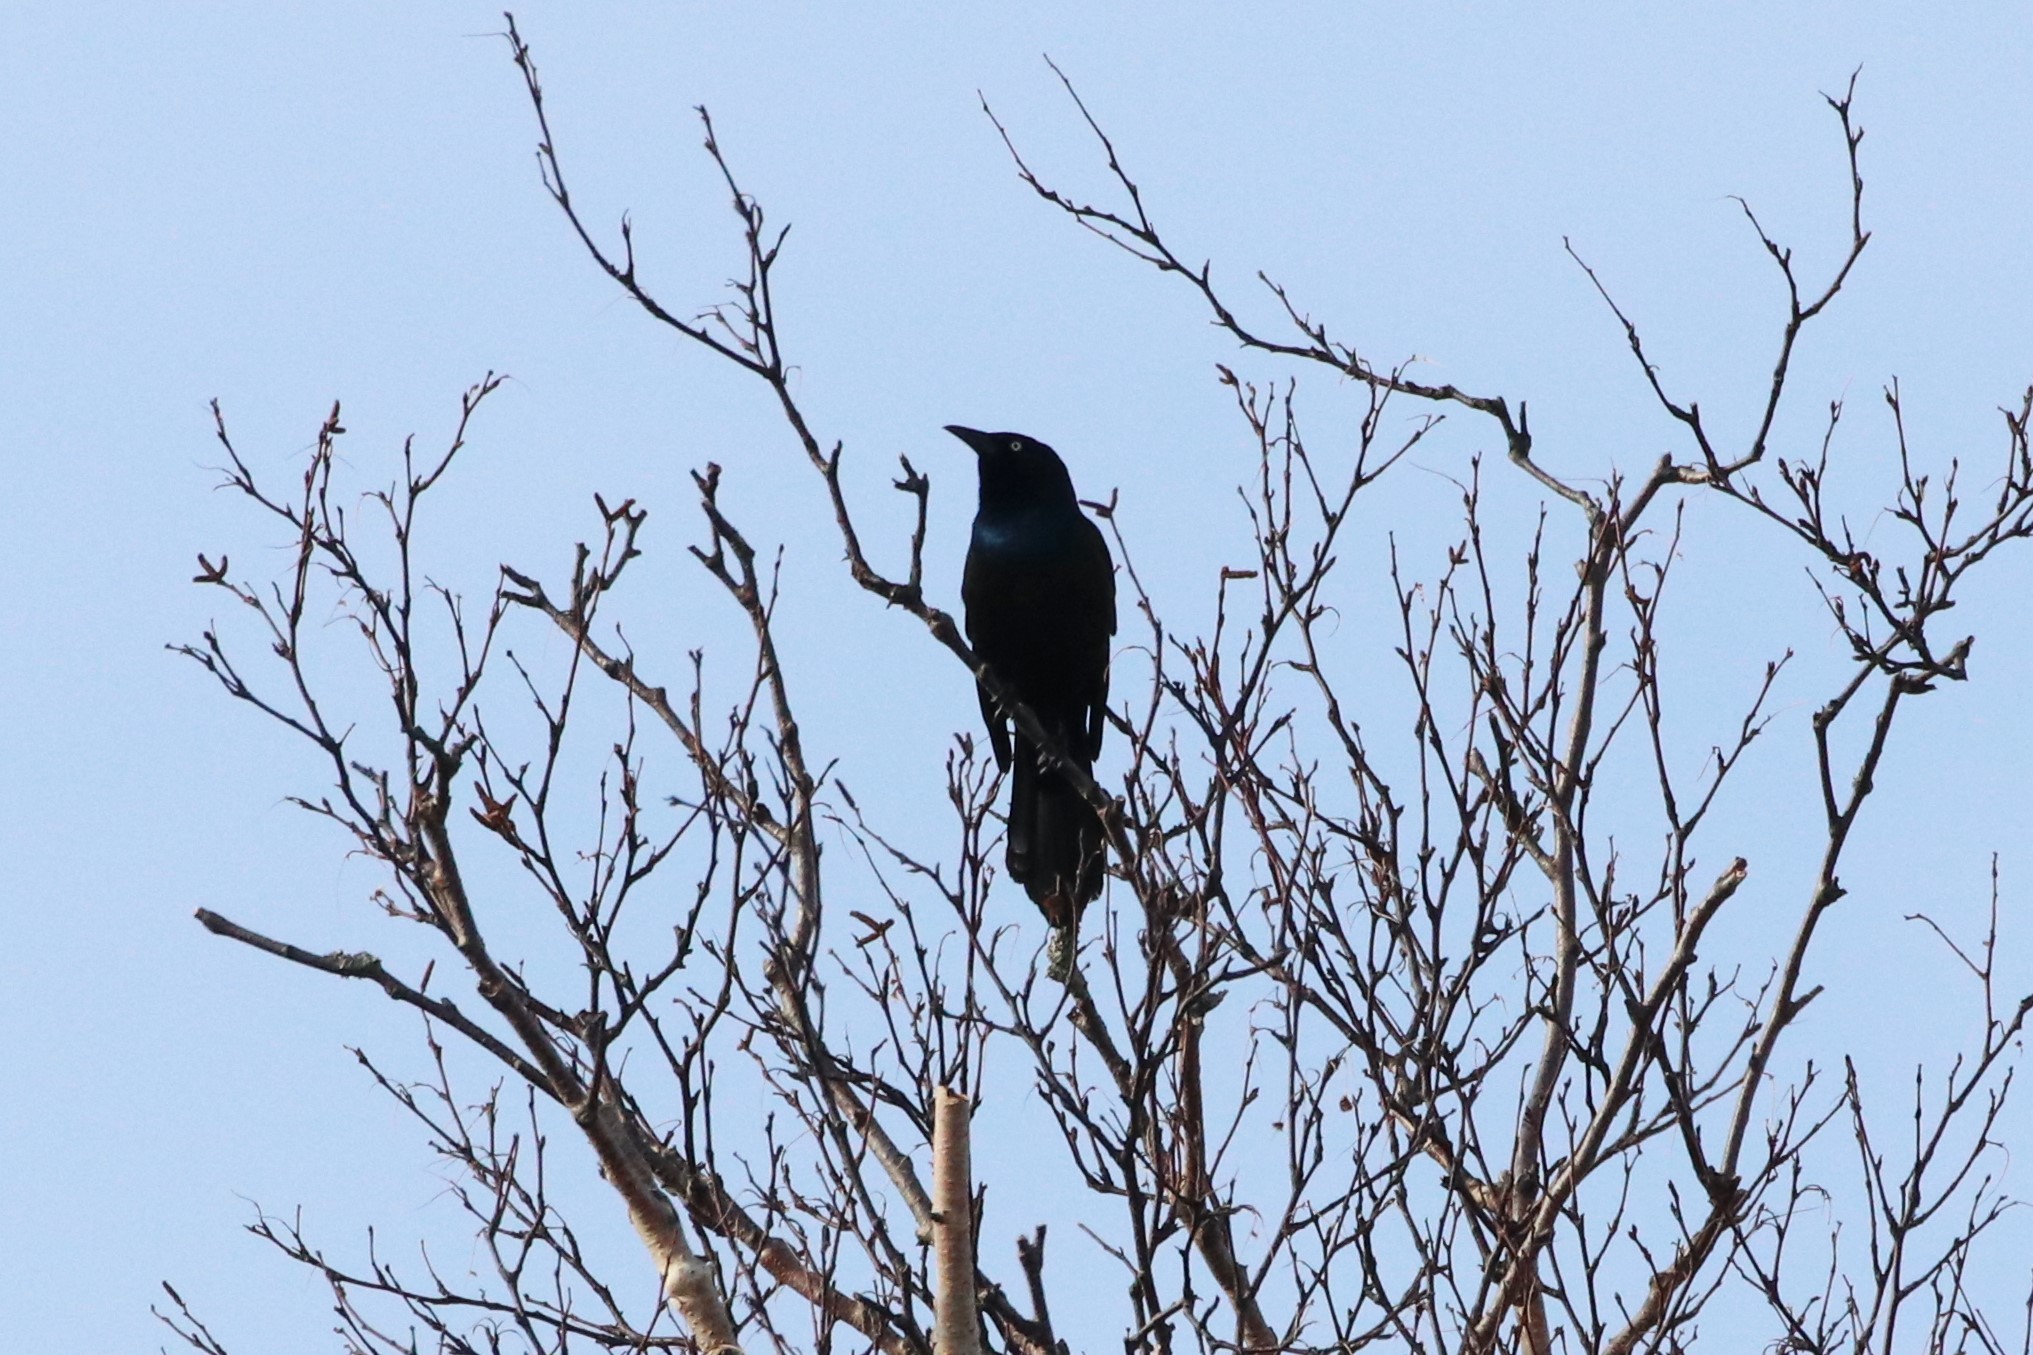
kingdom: Animalia
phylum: Chordata
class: Aves
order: Passeriformes
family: Icteridae
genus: Quiscalus
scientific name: Quiscalus quiscula
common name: Common grackle
